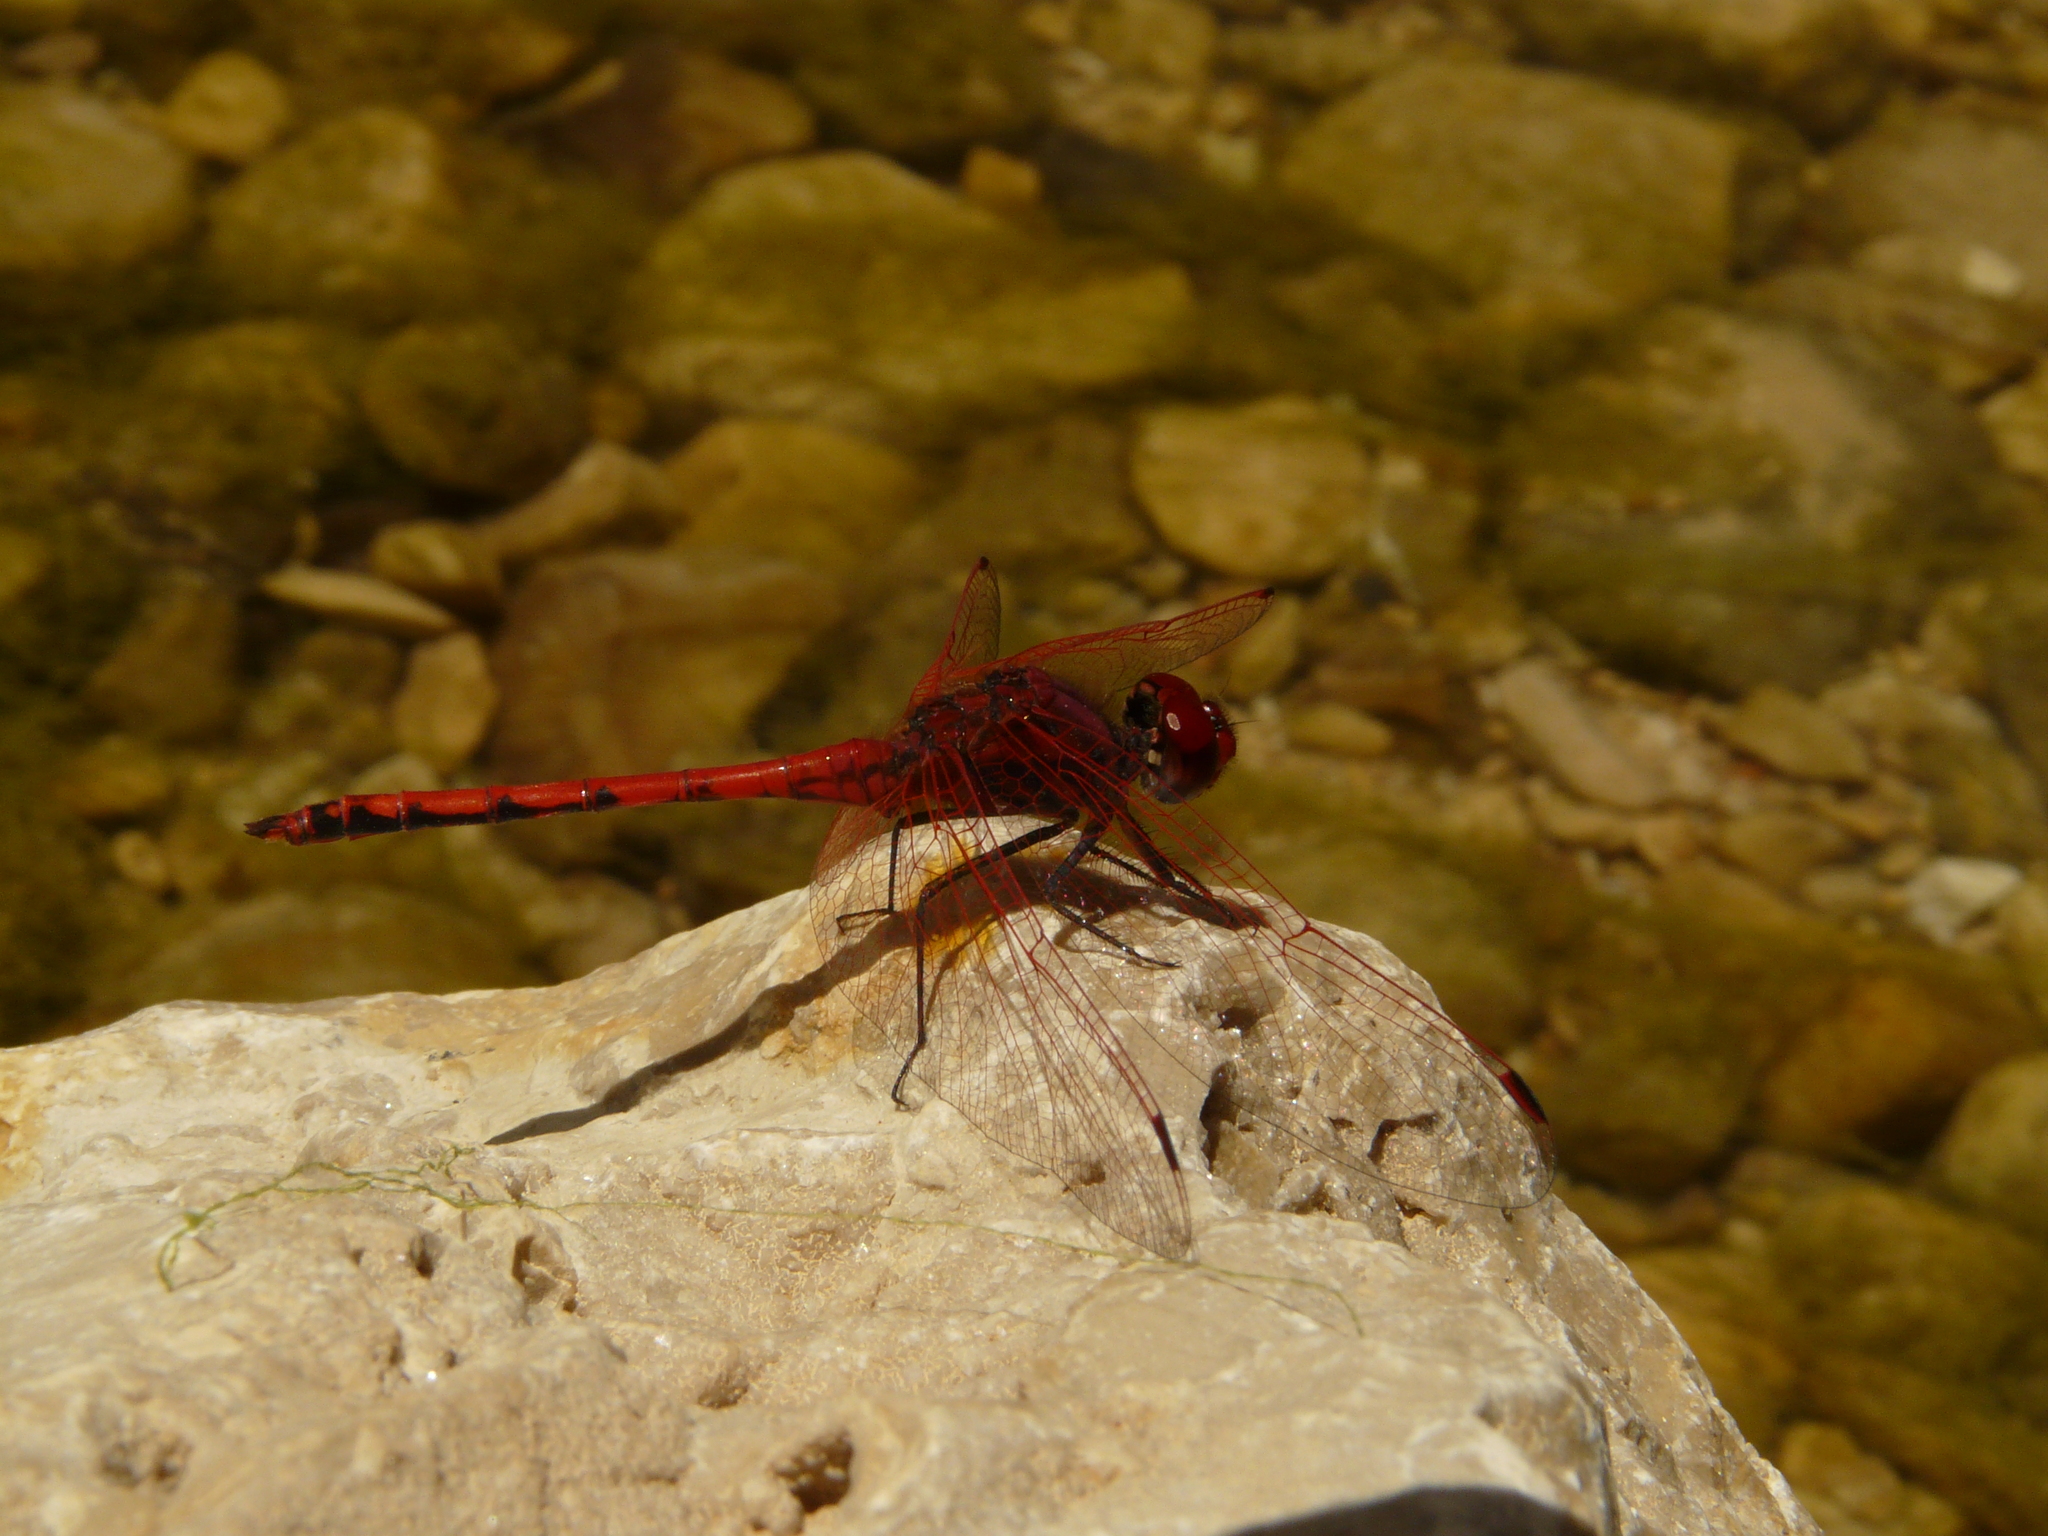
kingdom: Animalia
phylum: Arthropoda
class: Insecta
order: Odonata
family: Libellulidae
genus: Trithemis
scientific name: Trithemis arteriosa
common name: Red-veined dropwing
